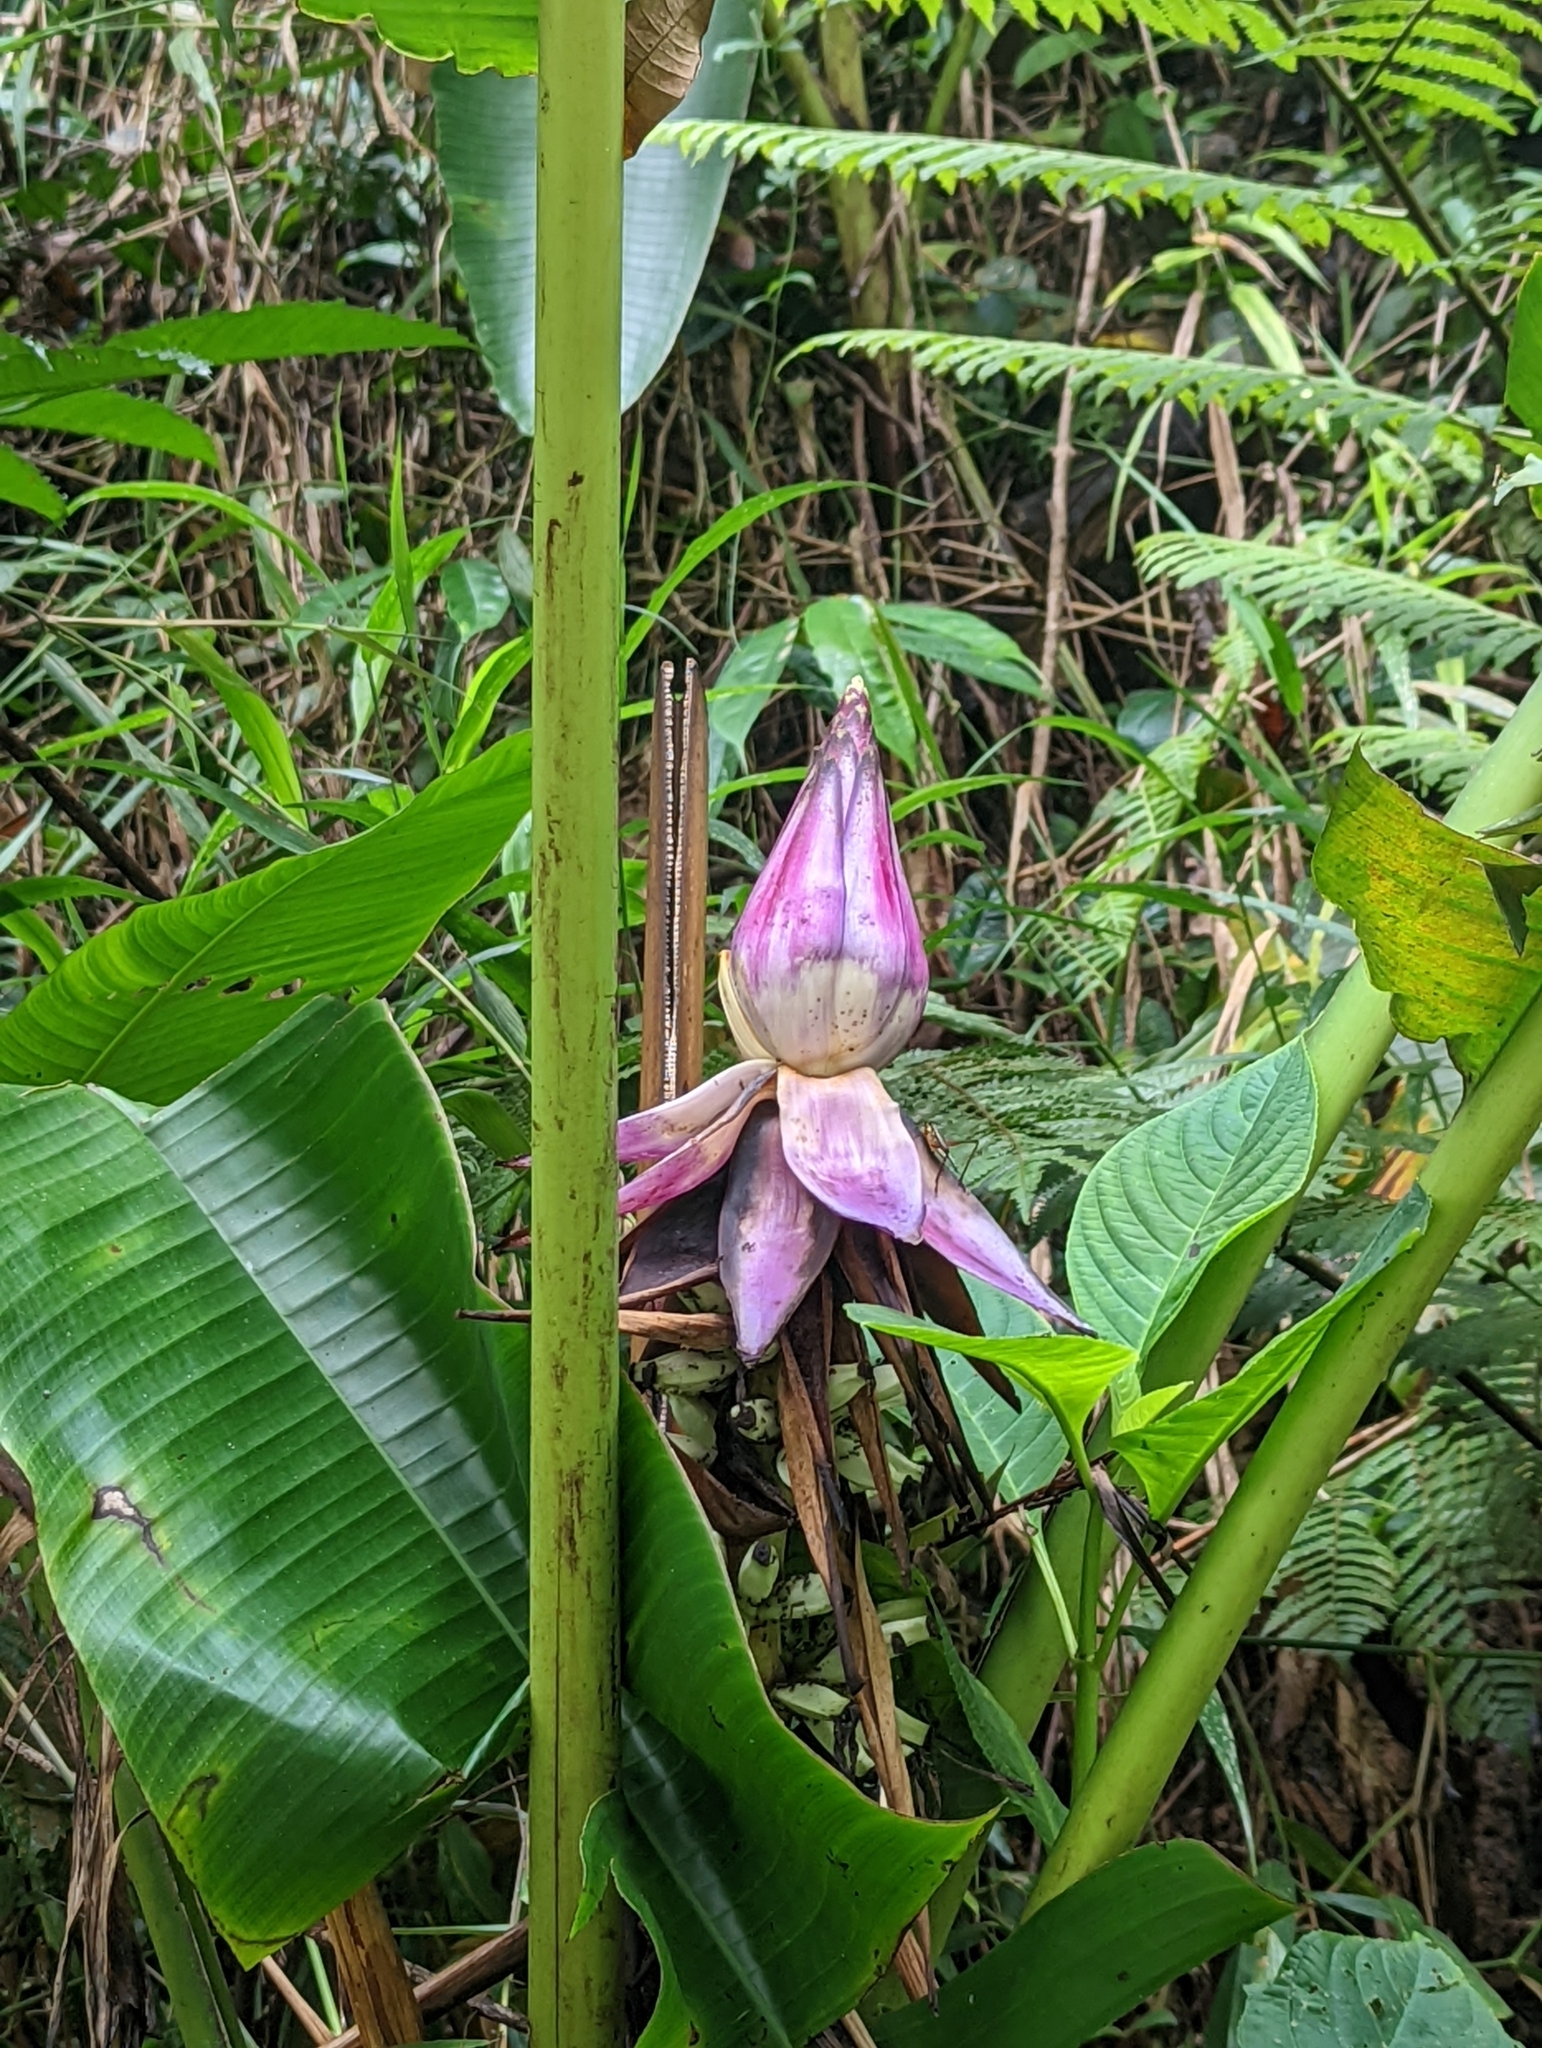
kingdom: Plantae
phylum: Tracheophyta
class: Liliopsida
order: Zingiberales
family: Musaceae
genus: Musa
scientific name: Musa violascens
